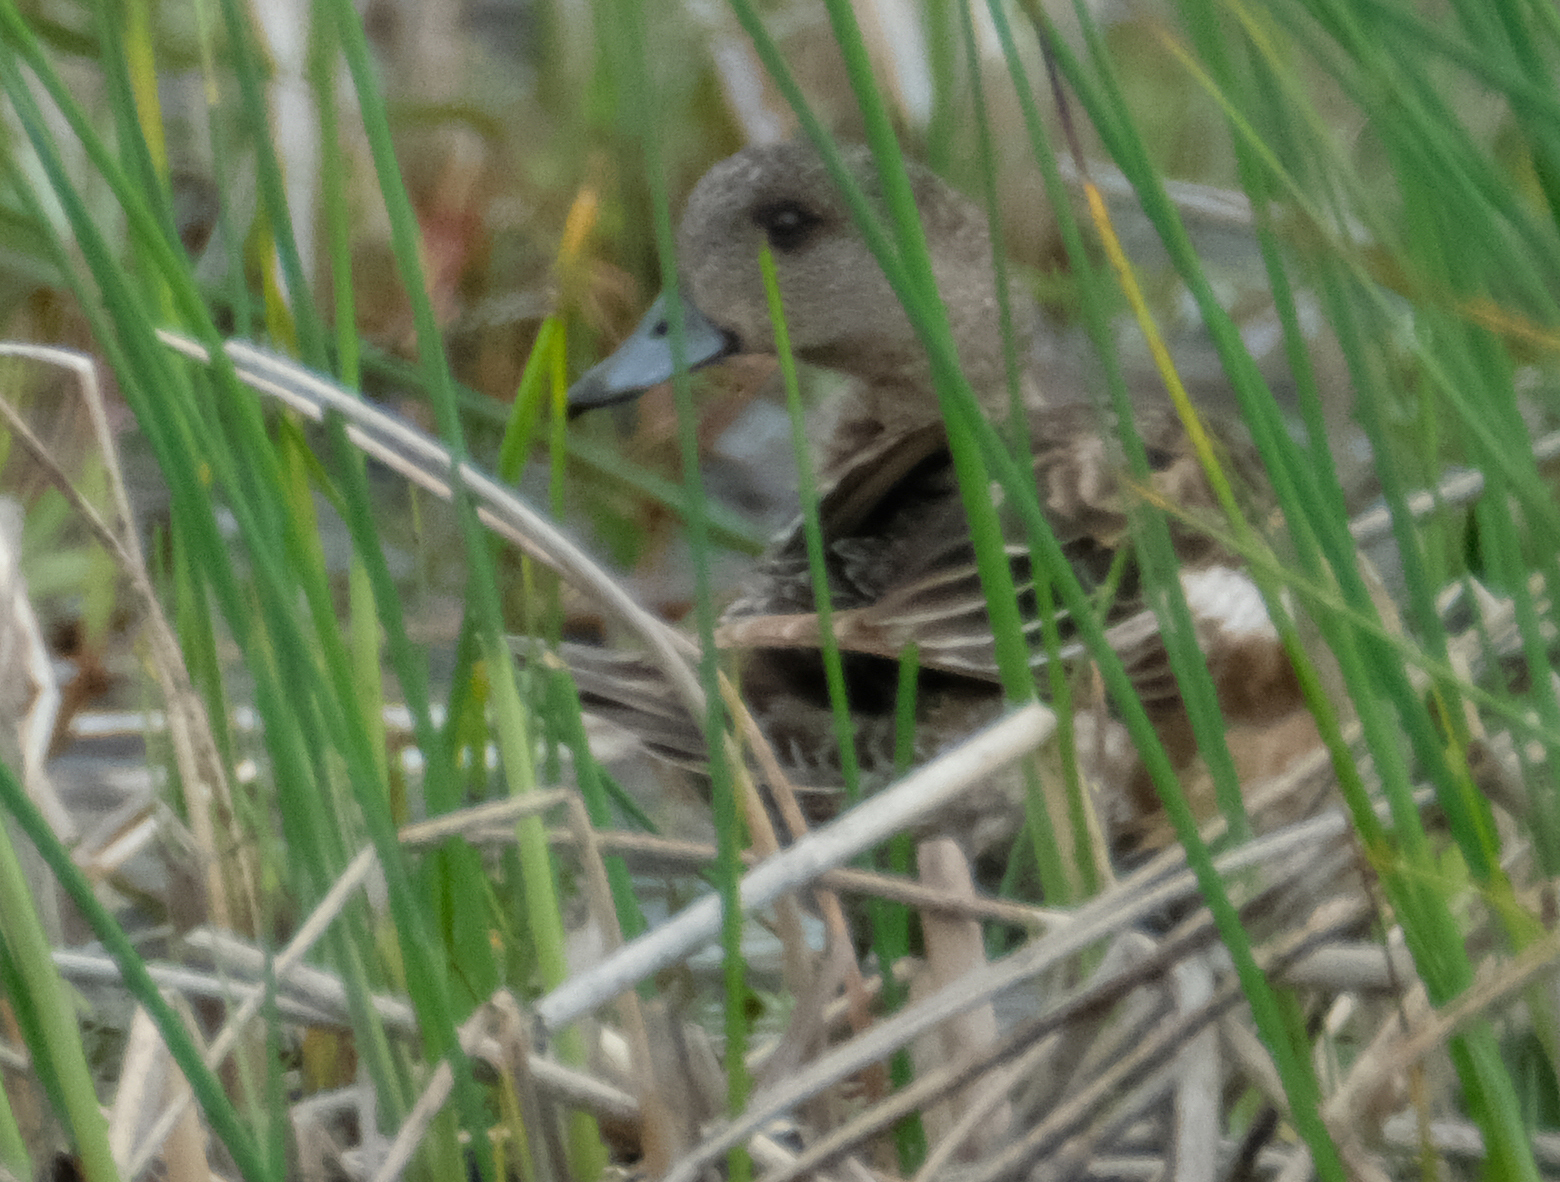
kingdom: Animalia
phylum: Chordata
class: Aves
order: Anseriformes
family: Anatidae
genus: Mareca
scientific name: Mareca americana
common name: American wigeon
